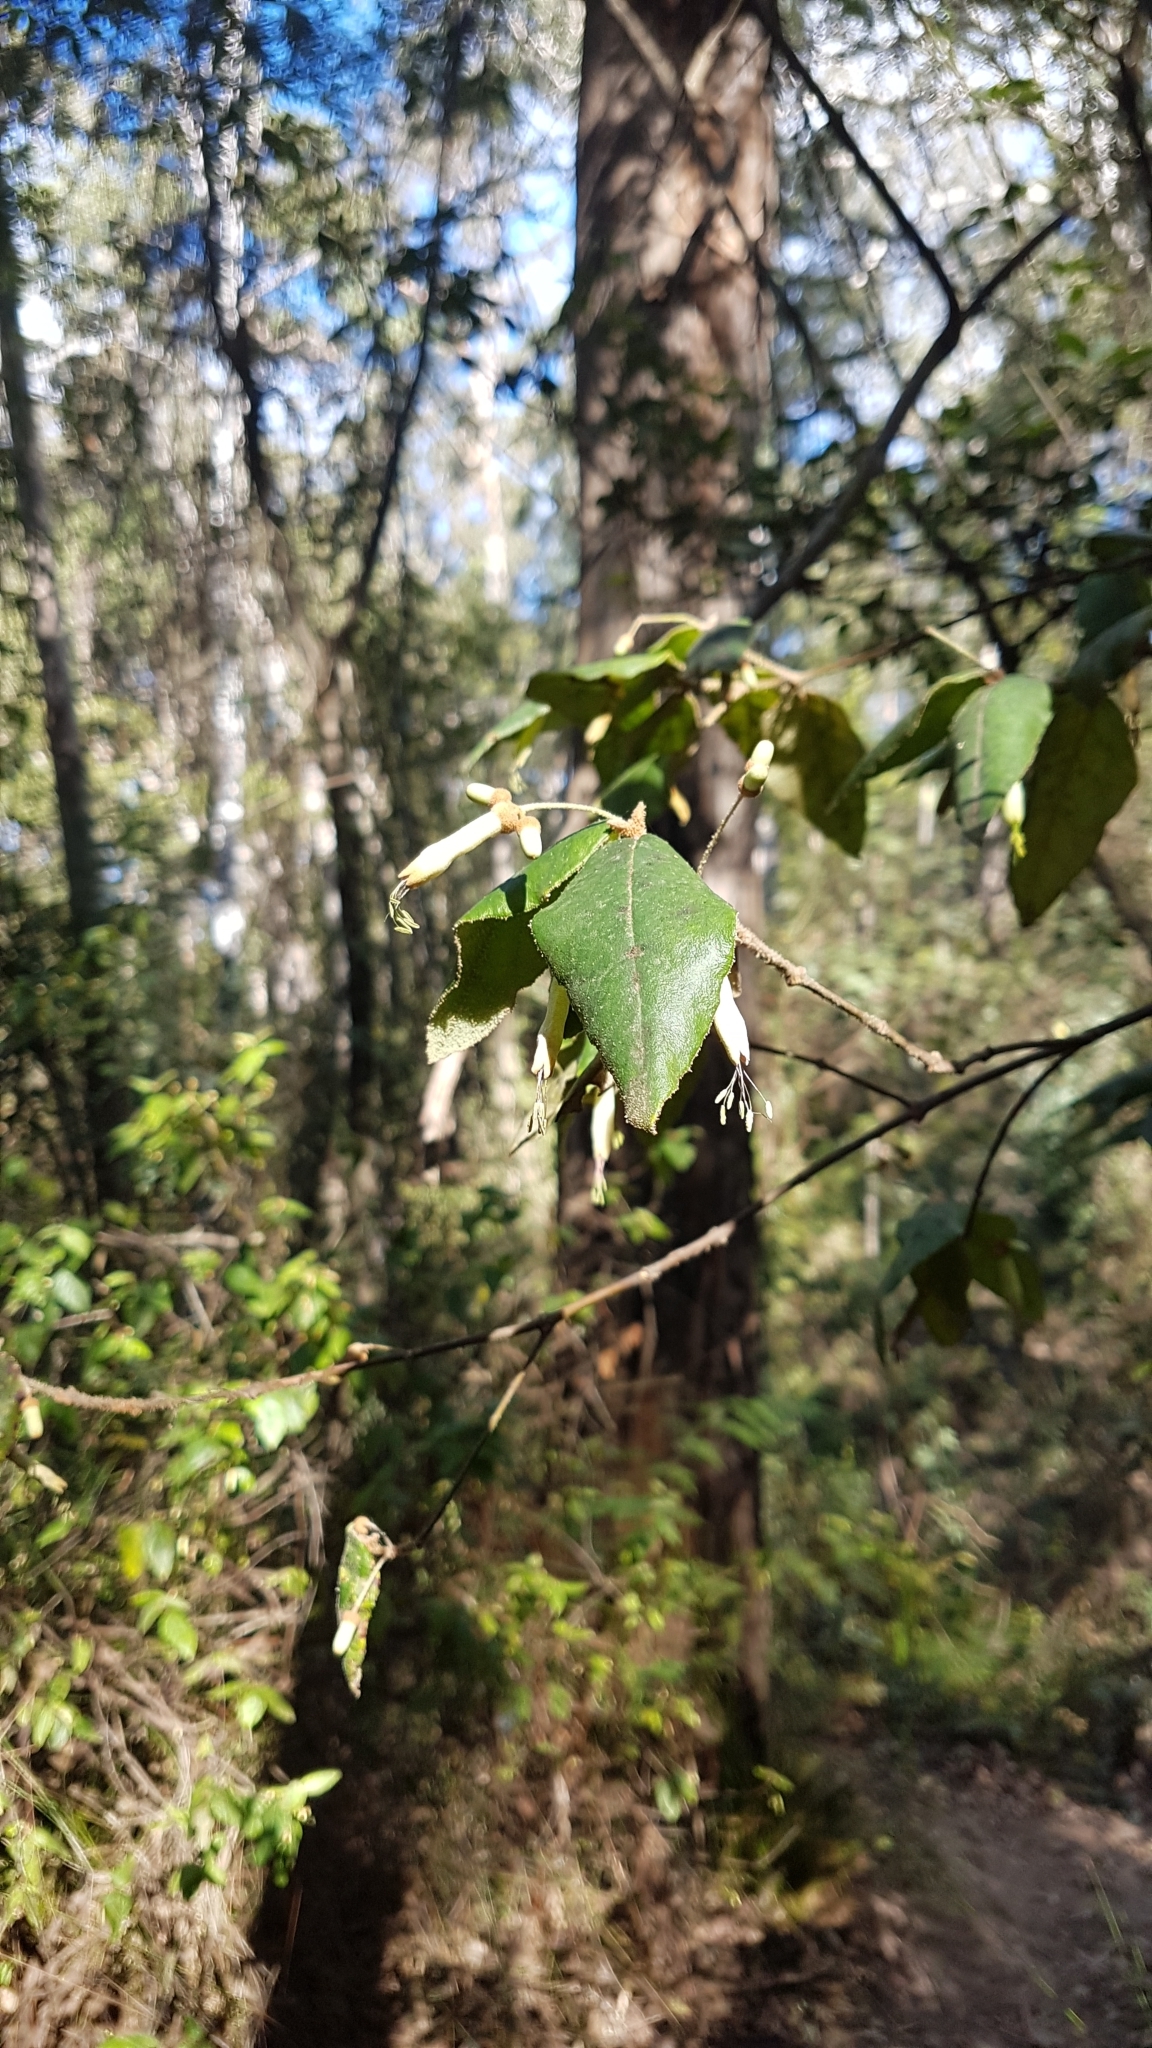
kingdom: Plantae
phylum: Tracheophyta
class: Magnoliopsida
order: Sapindales
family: Rutaceae
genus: Correa
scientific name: Correa lawrenceana
